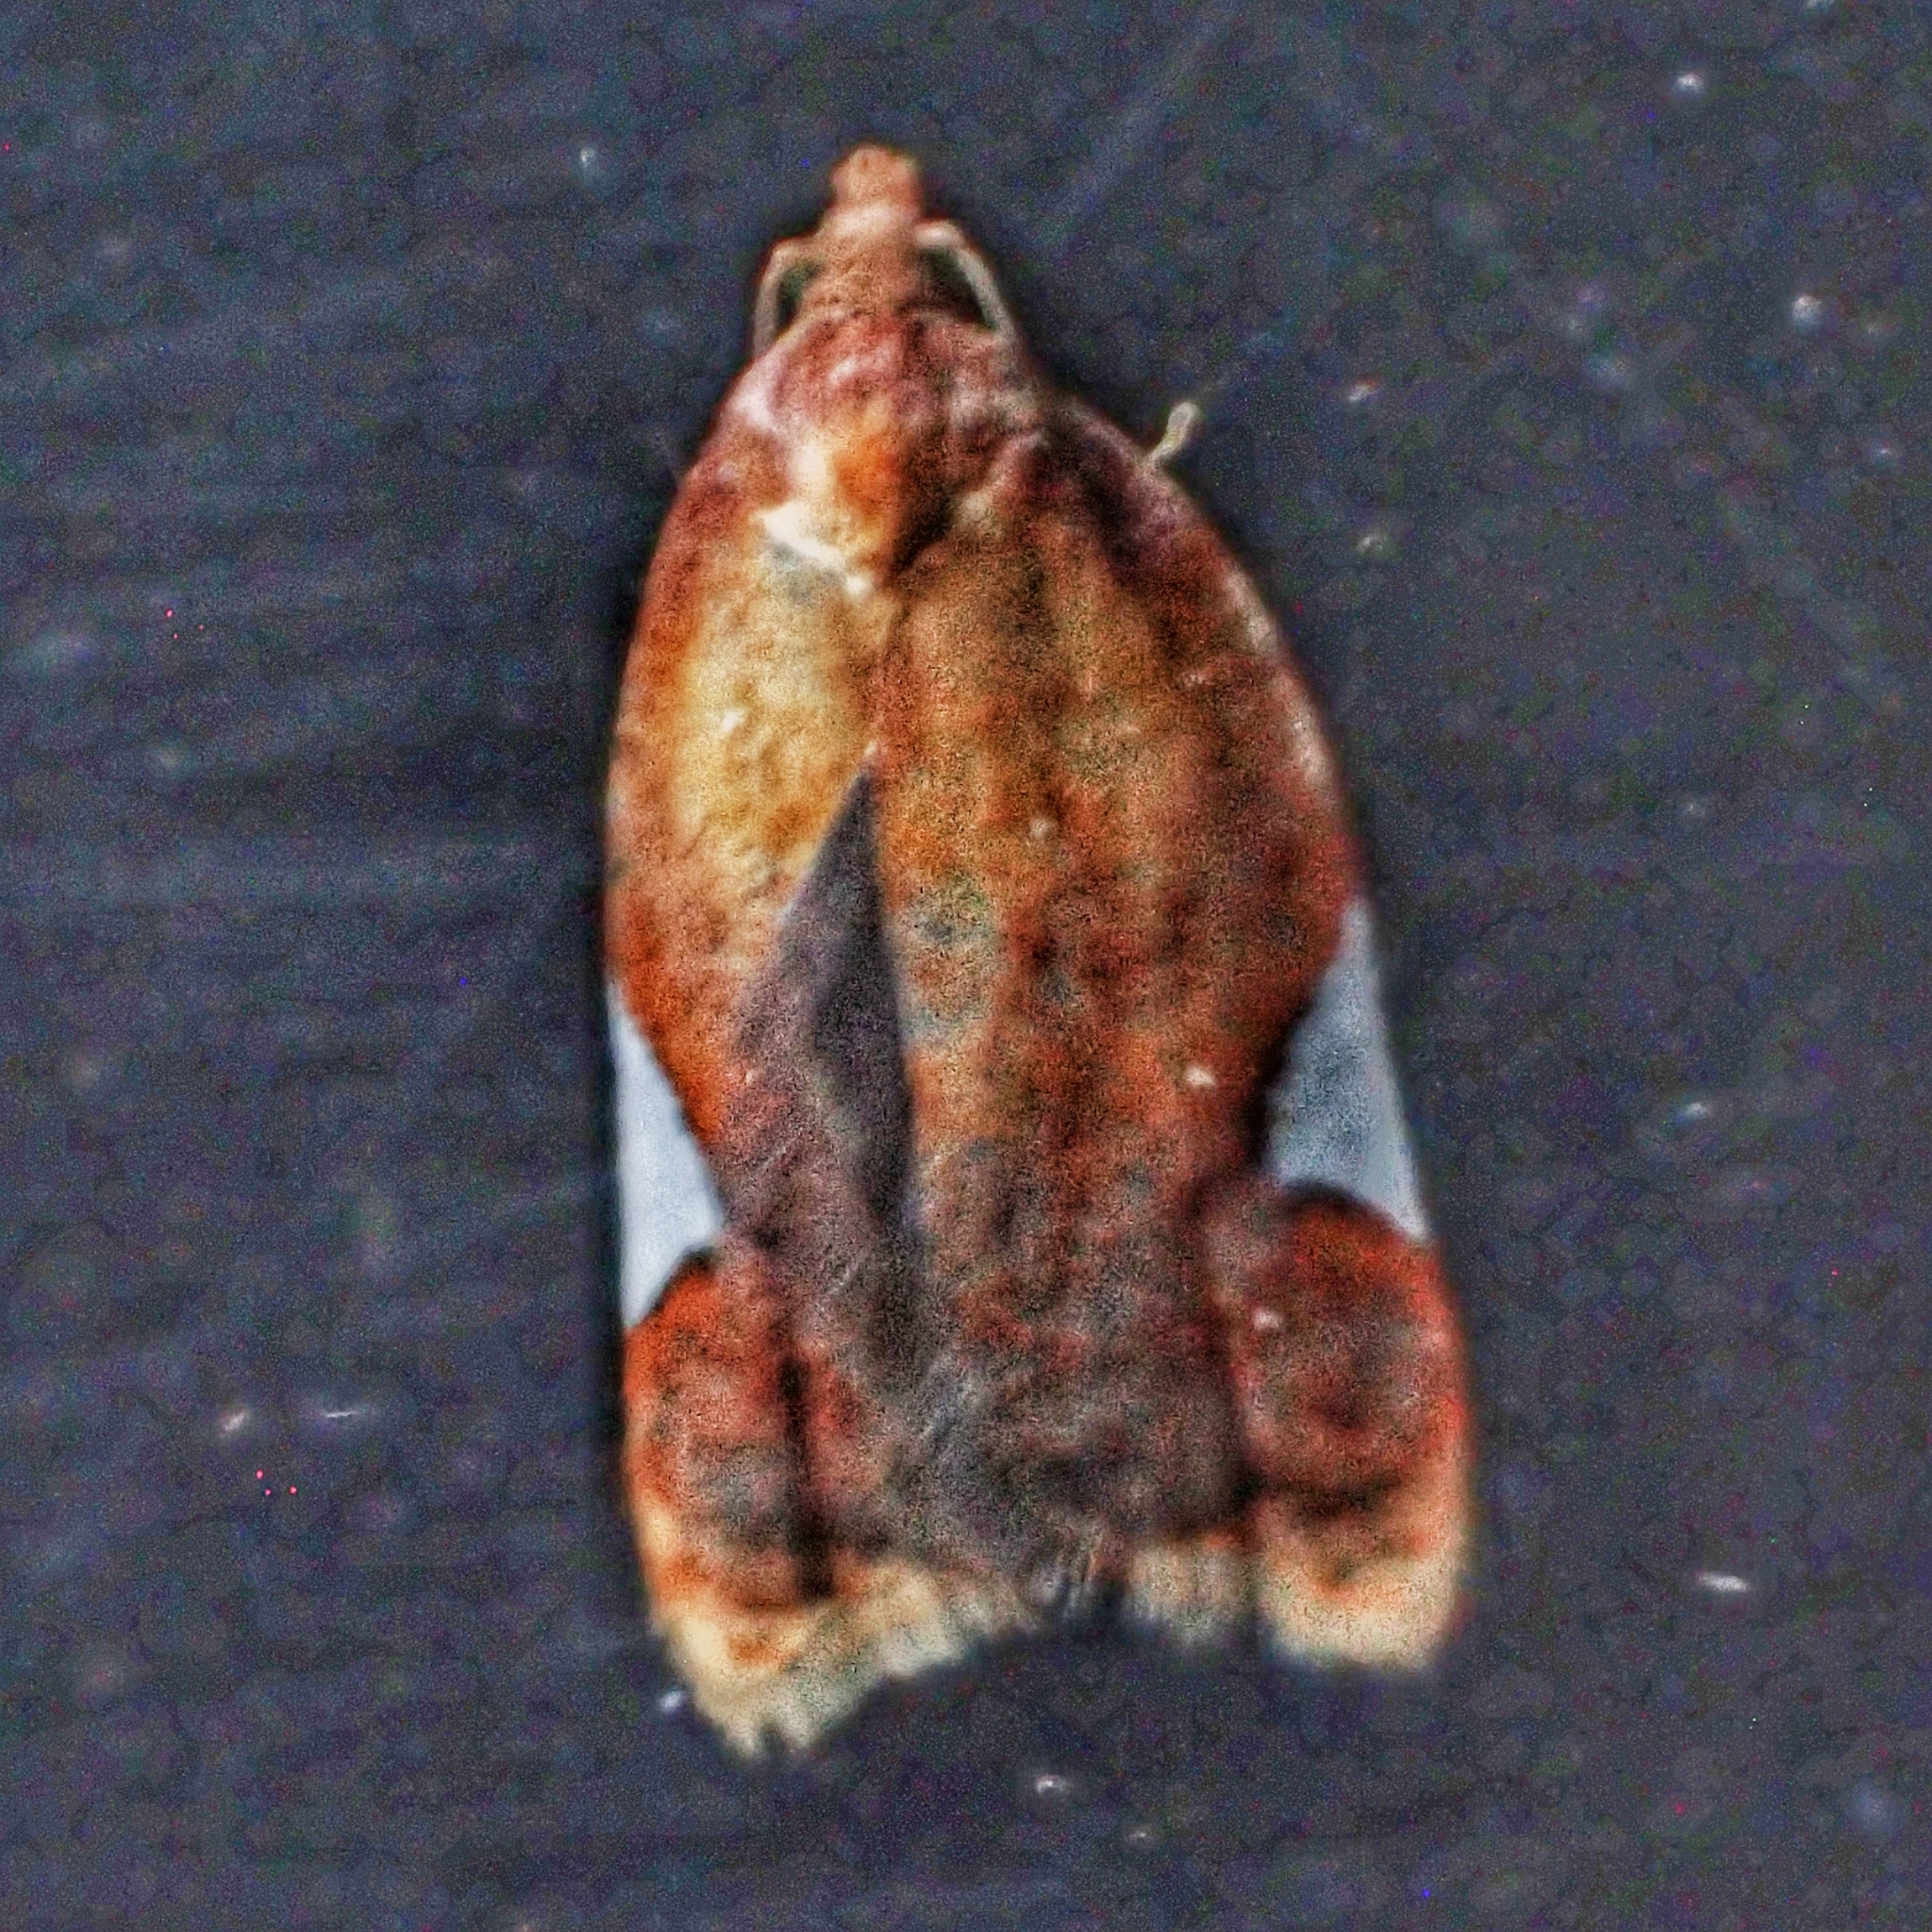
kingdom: Animalia
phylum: Arthropoda
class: Insecta
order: Lepidoptera
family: Tortricidae
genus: Acleris
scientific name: Acleris holmiana
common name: Golden leafroller moth
